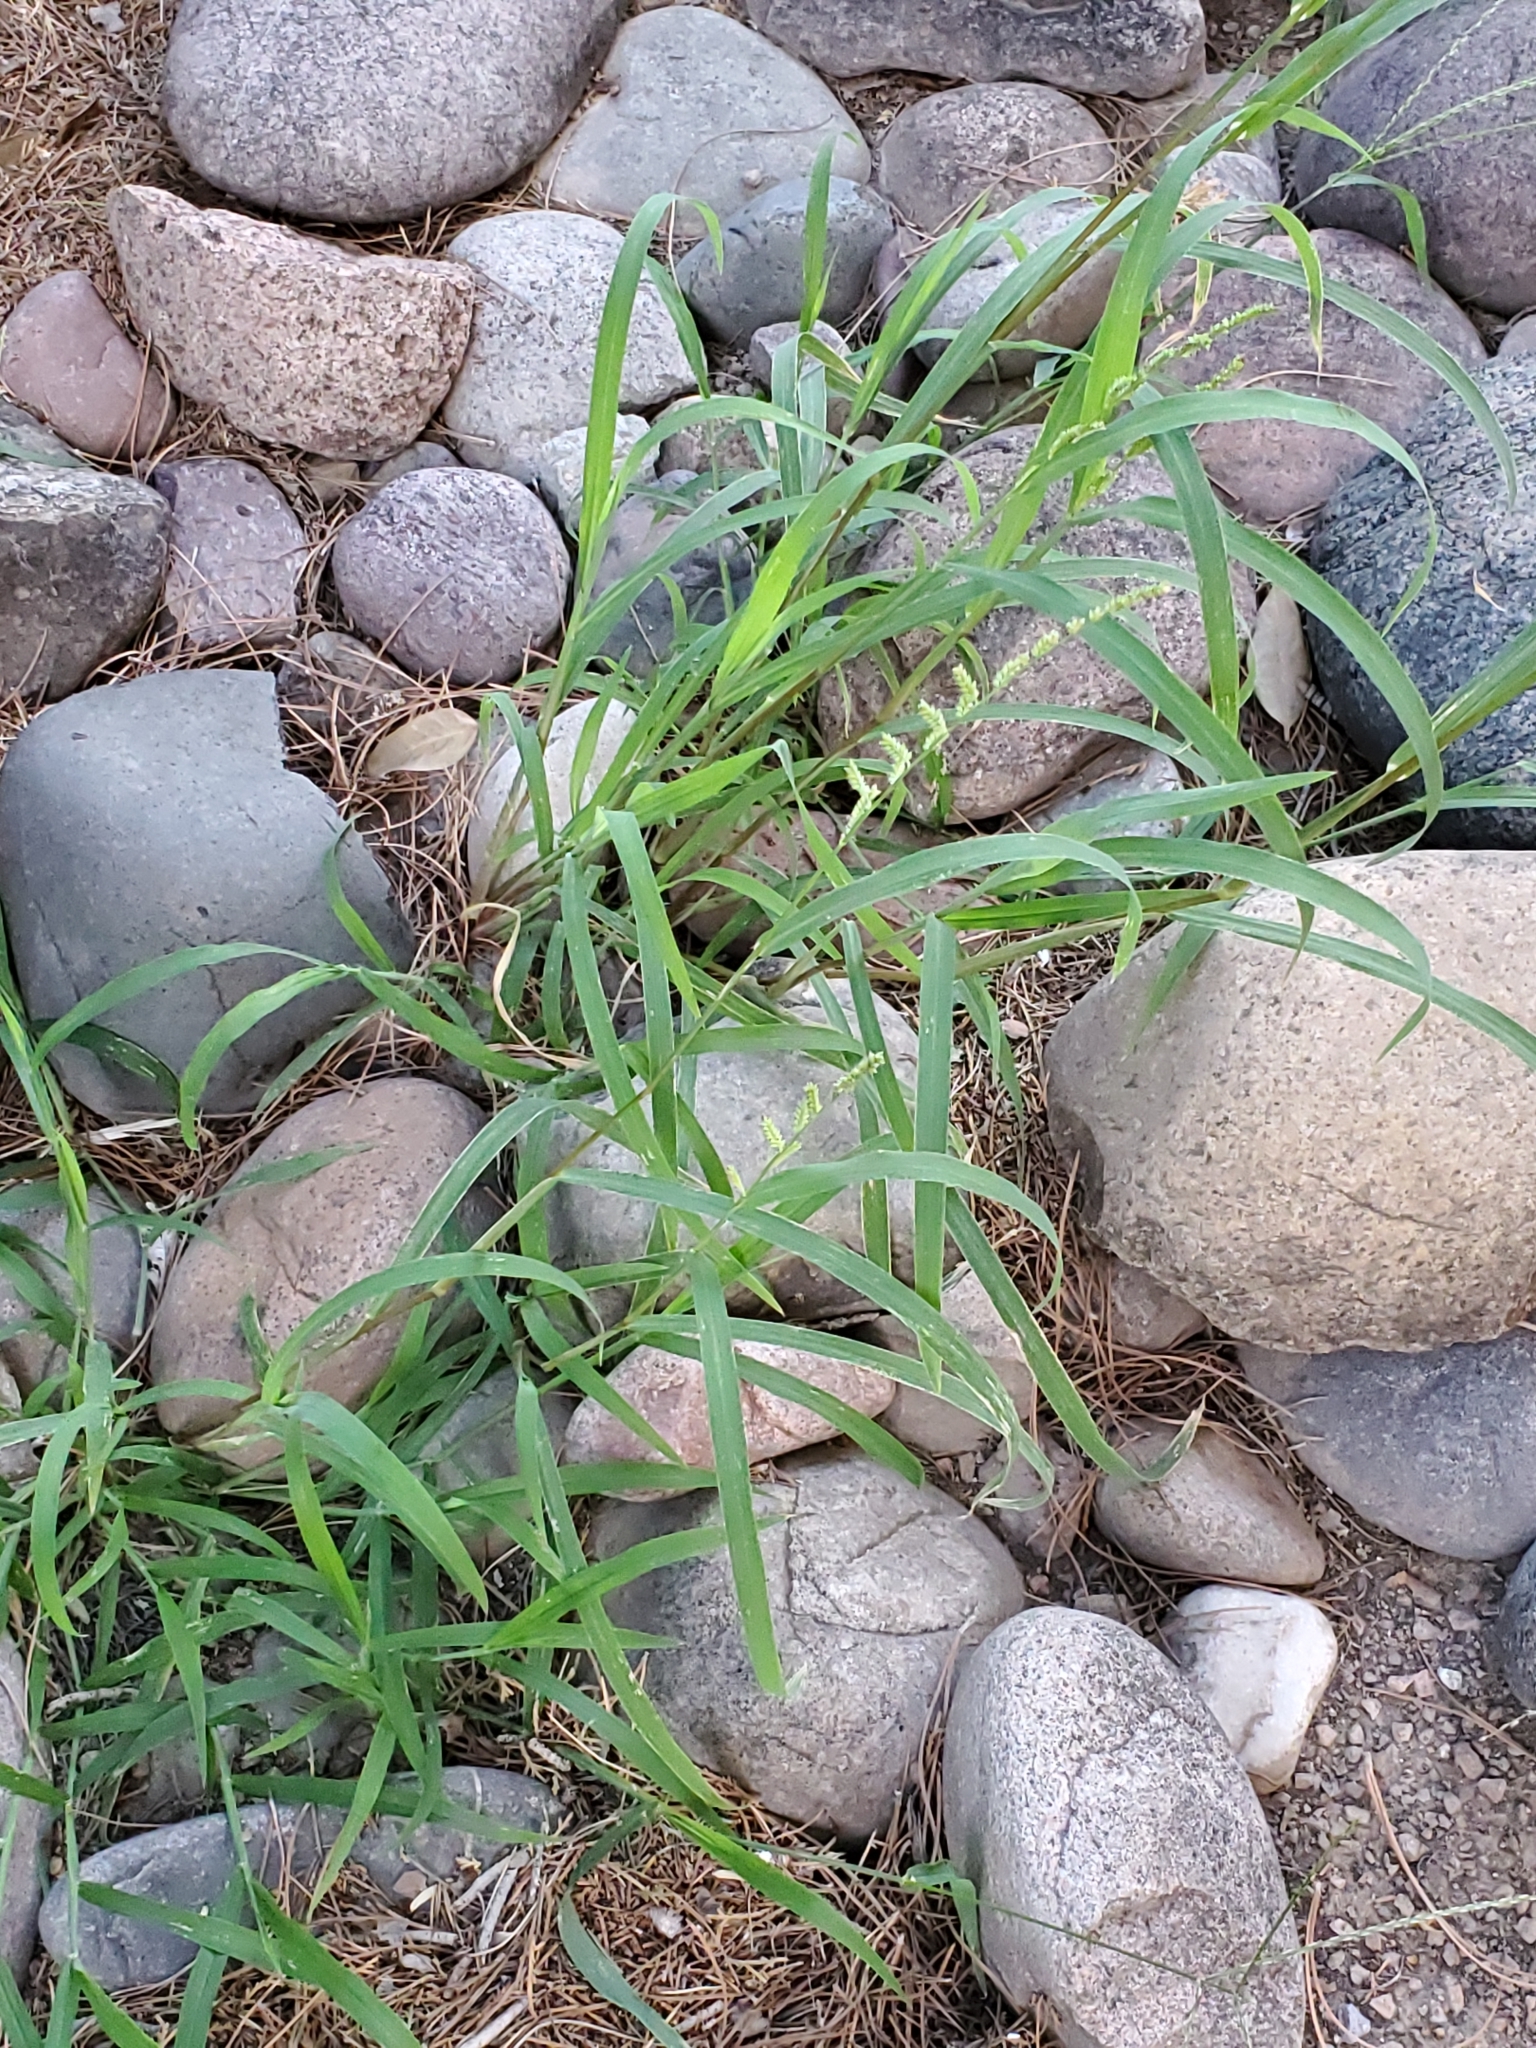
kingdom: Plantae
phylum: Tracheophyta
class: Liliopsida
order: Poales
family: Poaceae
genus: Echinochloa
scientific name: Echinochloa colonum
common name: Jungle rice
